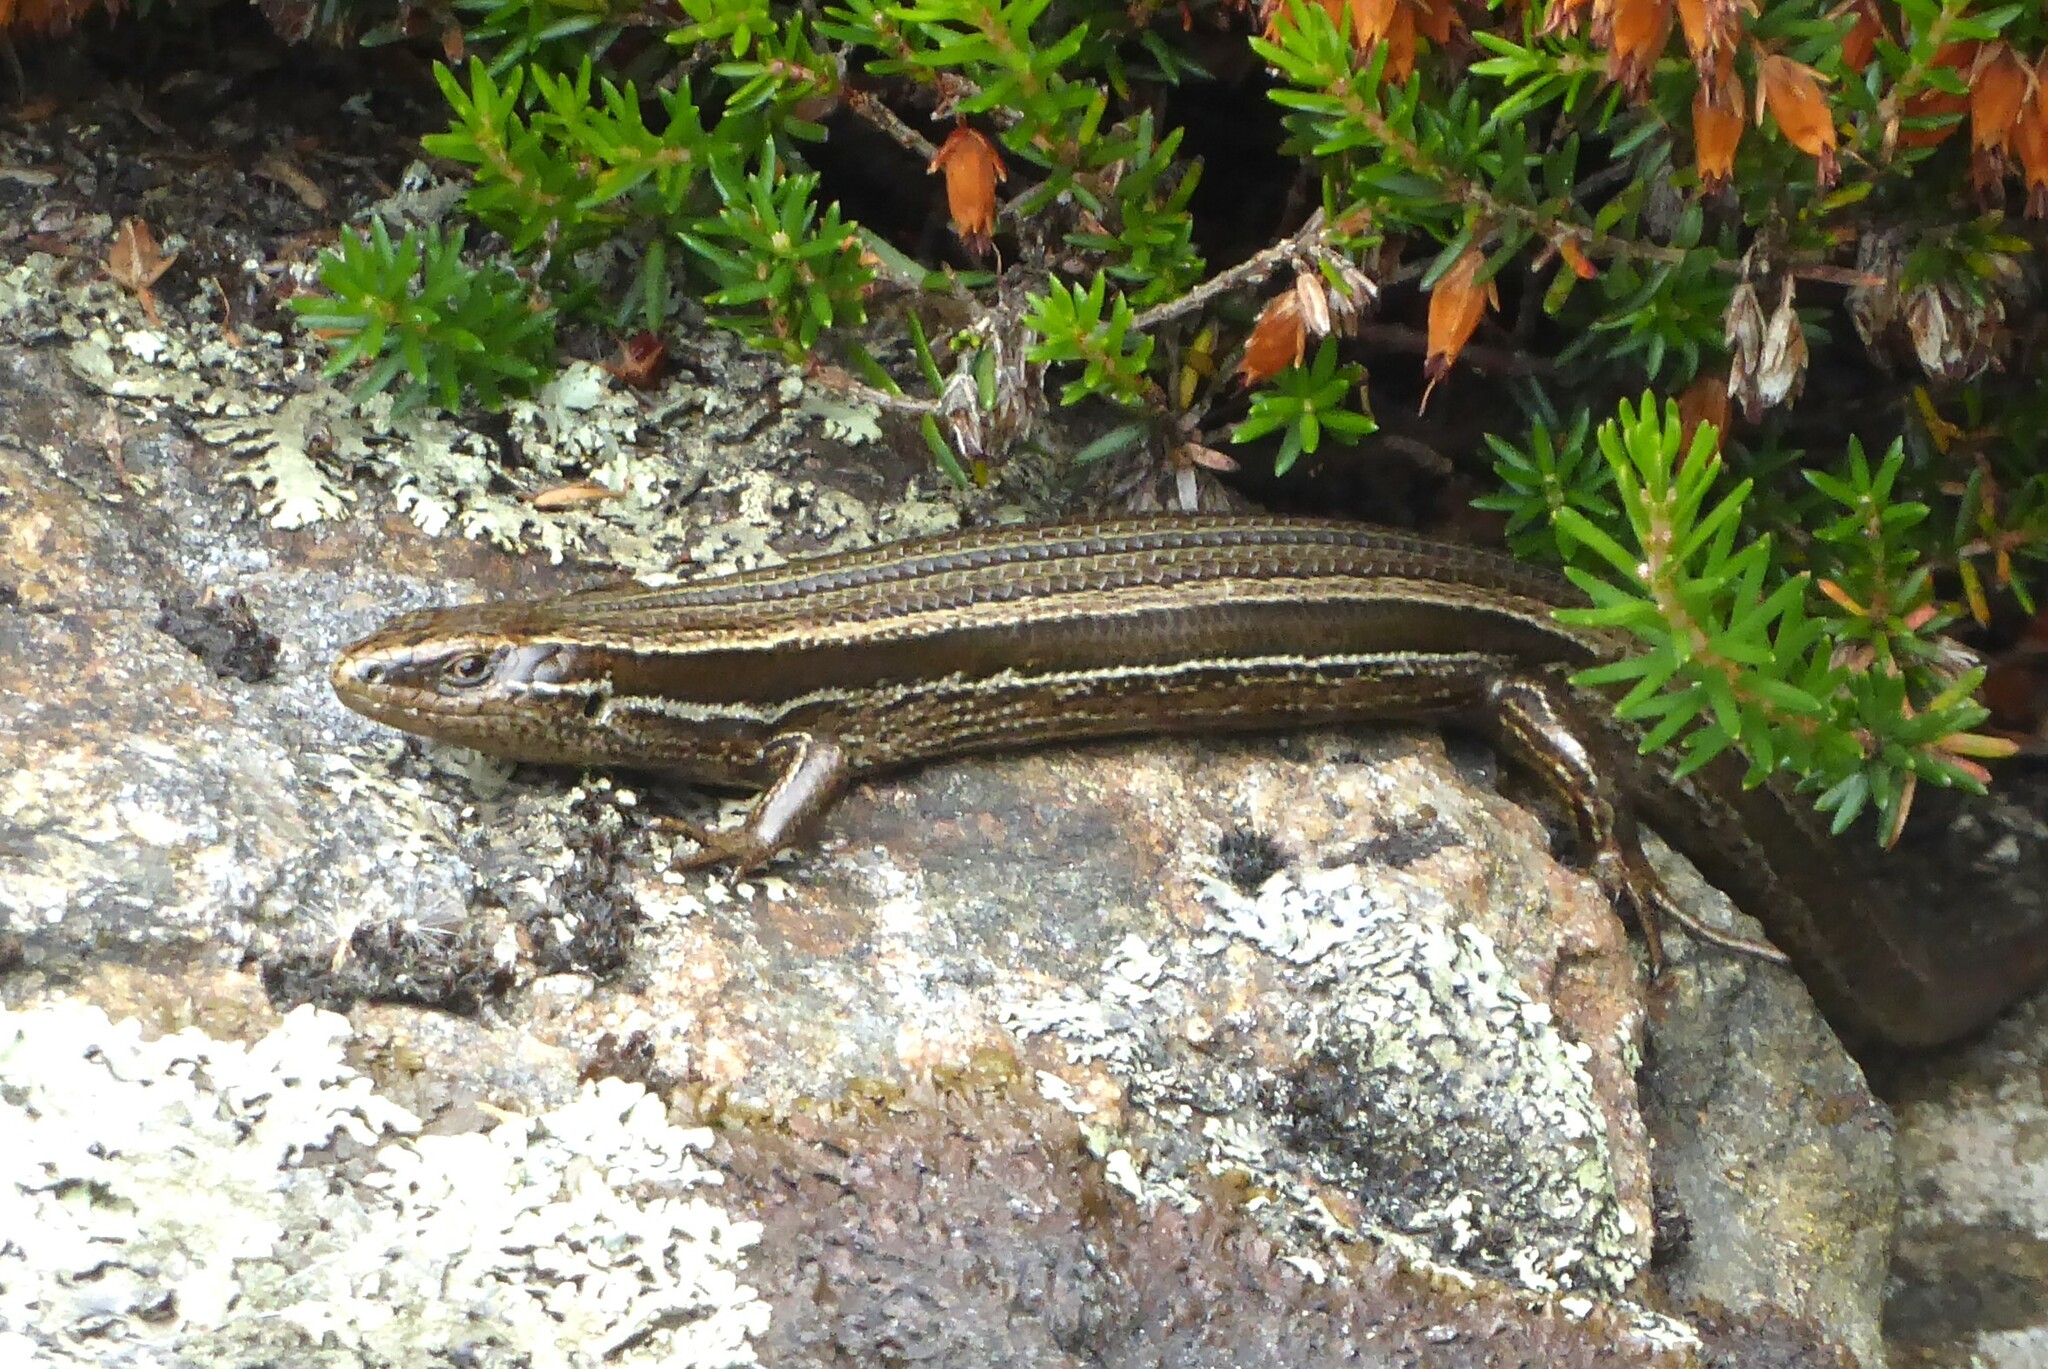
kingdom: Animalia
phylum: Chordata
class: Squamata
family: Scincidae
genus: Oligosoma
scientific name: Oligosoma polychroma
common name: Common new zealand skink
